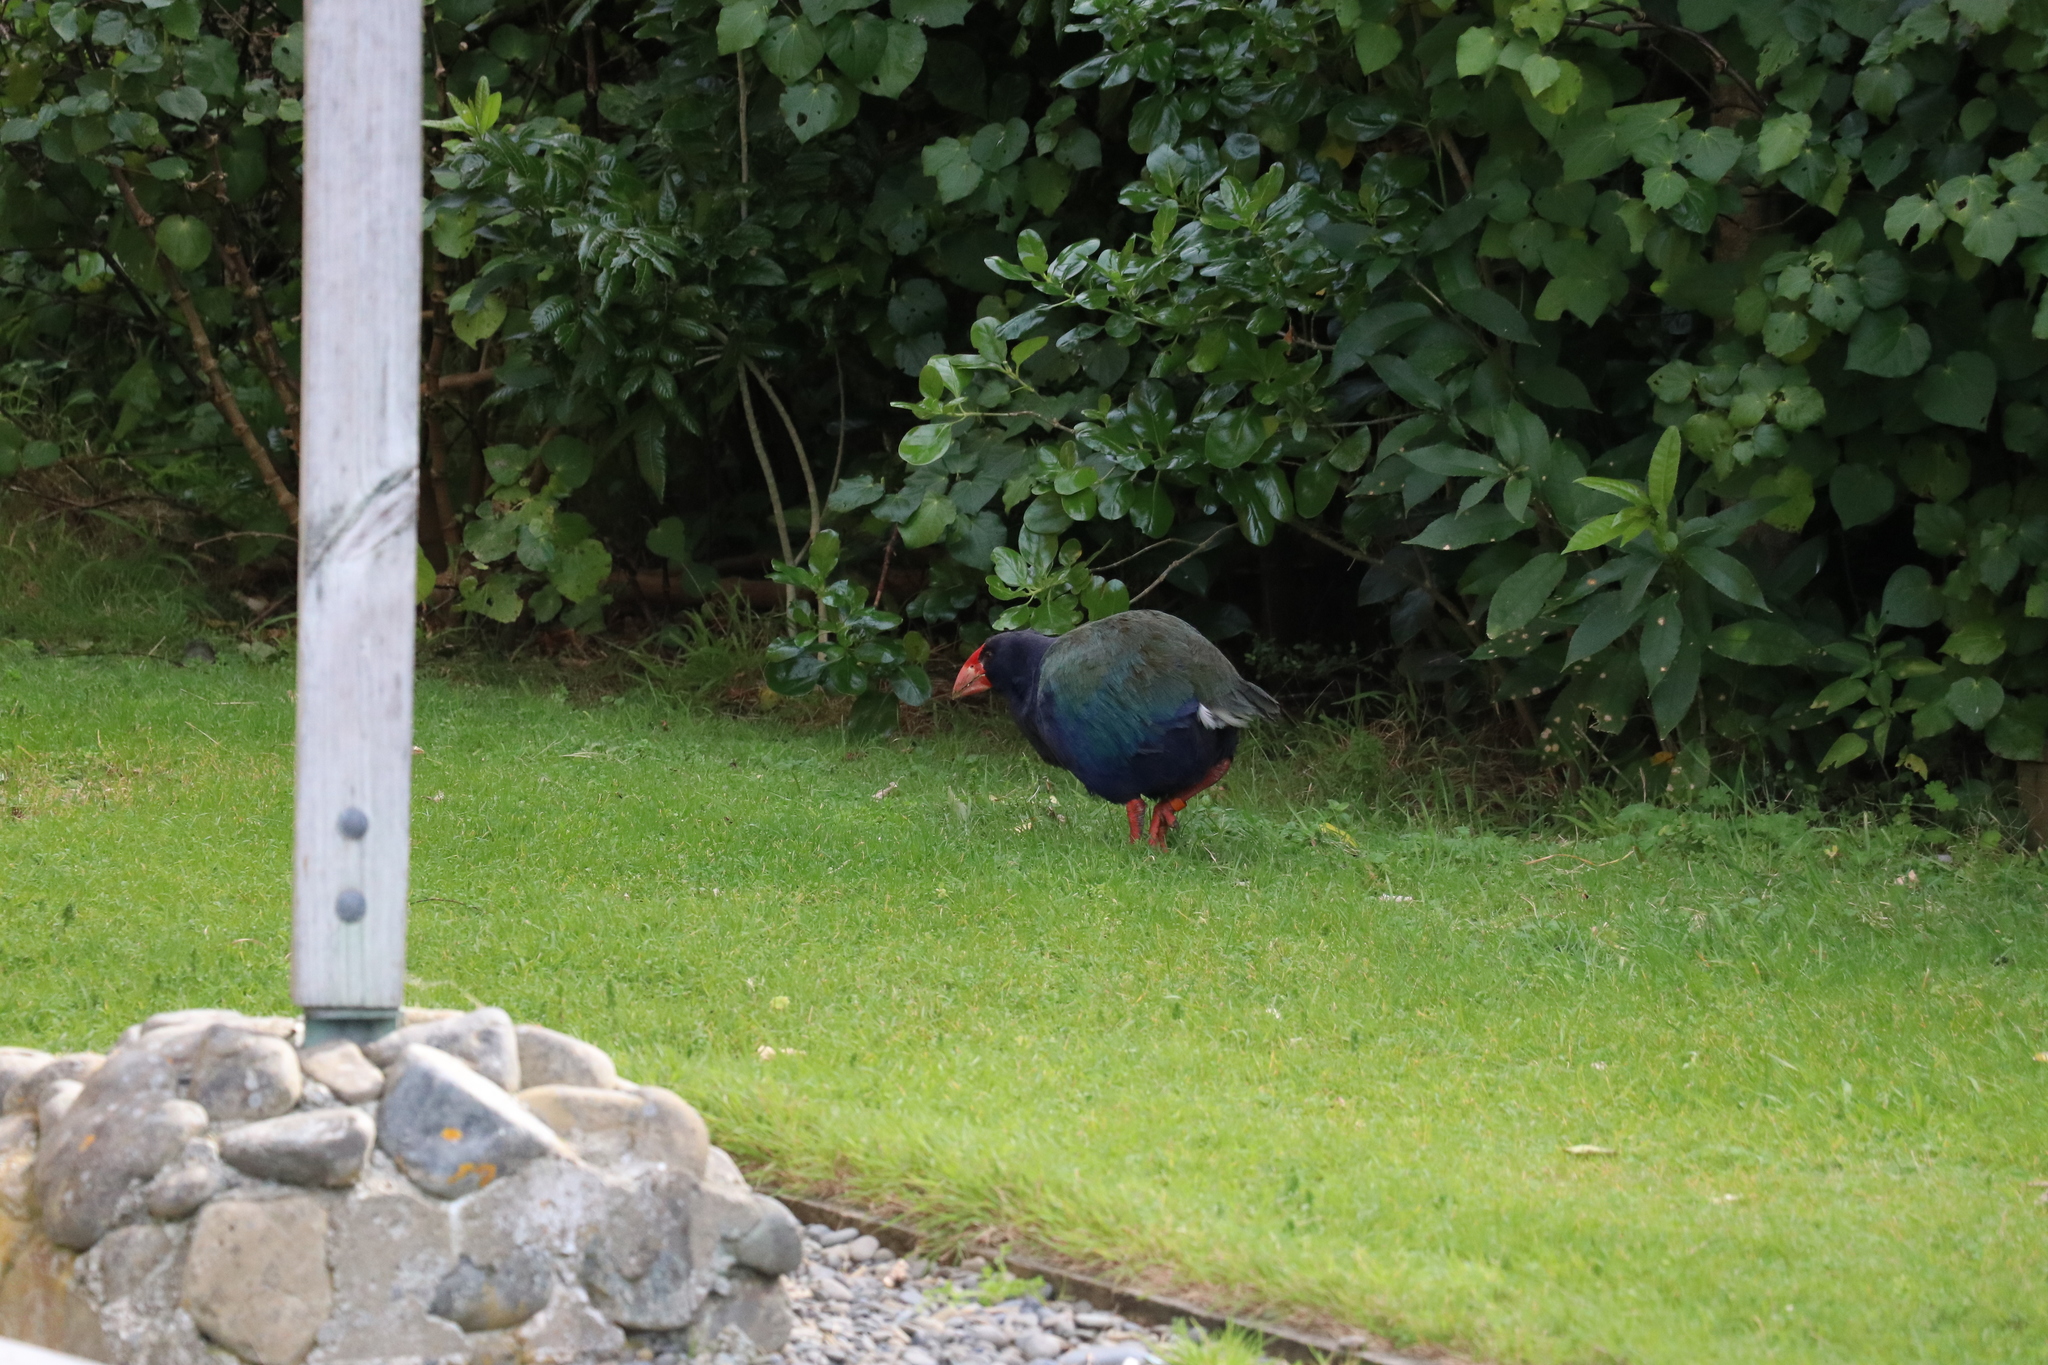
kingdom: Animalia
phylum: Chordata
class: Aves
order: Gruiformes
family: Rallidae
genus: Porphyrio
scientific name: Porphyrio hochstetteri
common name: South island takahe
